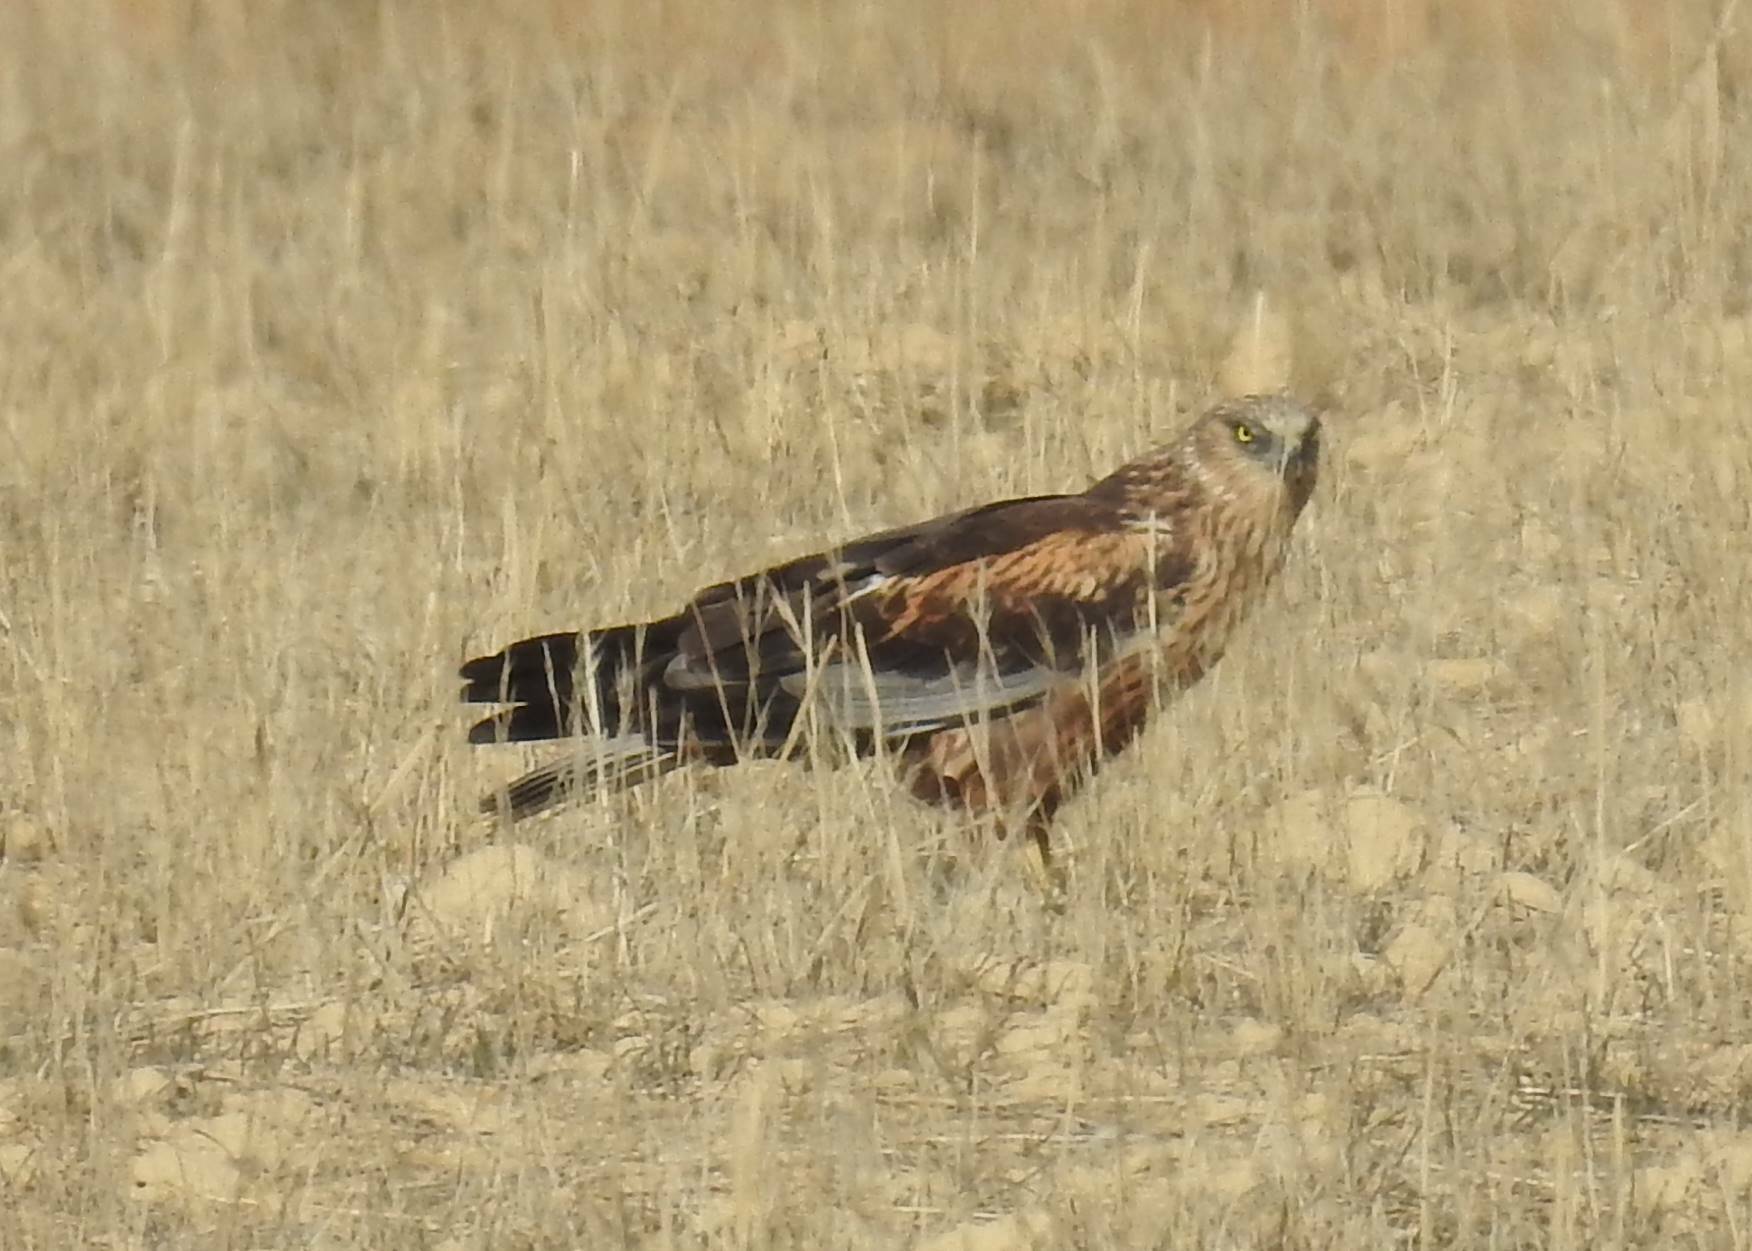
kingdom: Animalia
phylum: Chordata
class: Aves
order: Accipitriformes
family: Accipitridae
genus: Circus
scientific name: Circus aeruginosus
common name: Western marsh harrier
